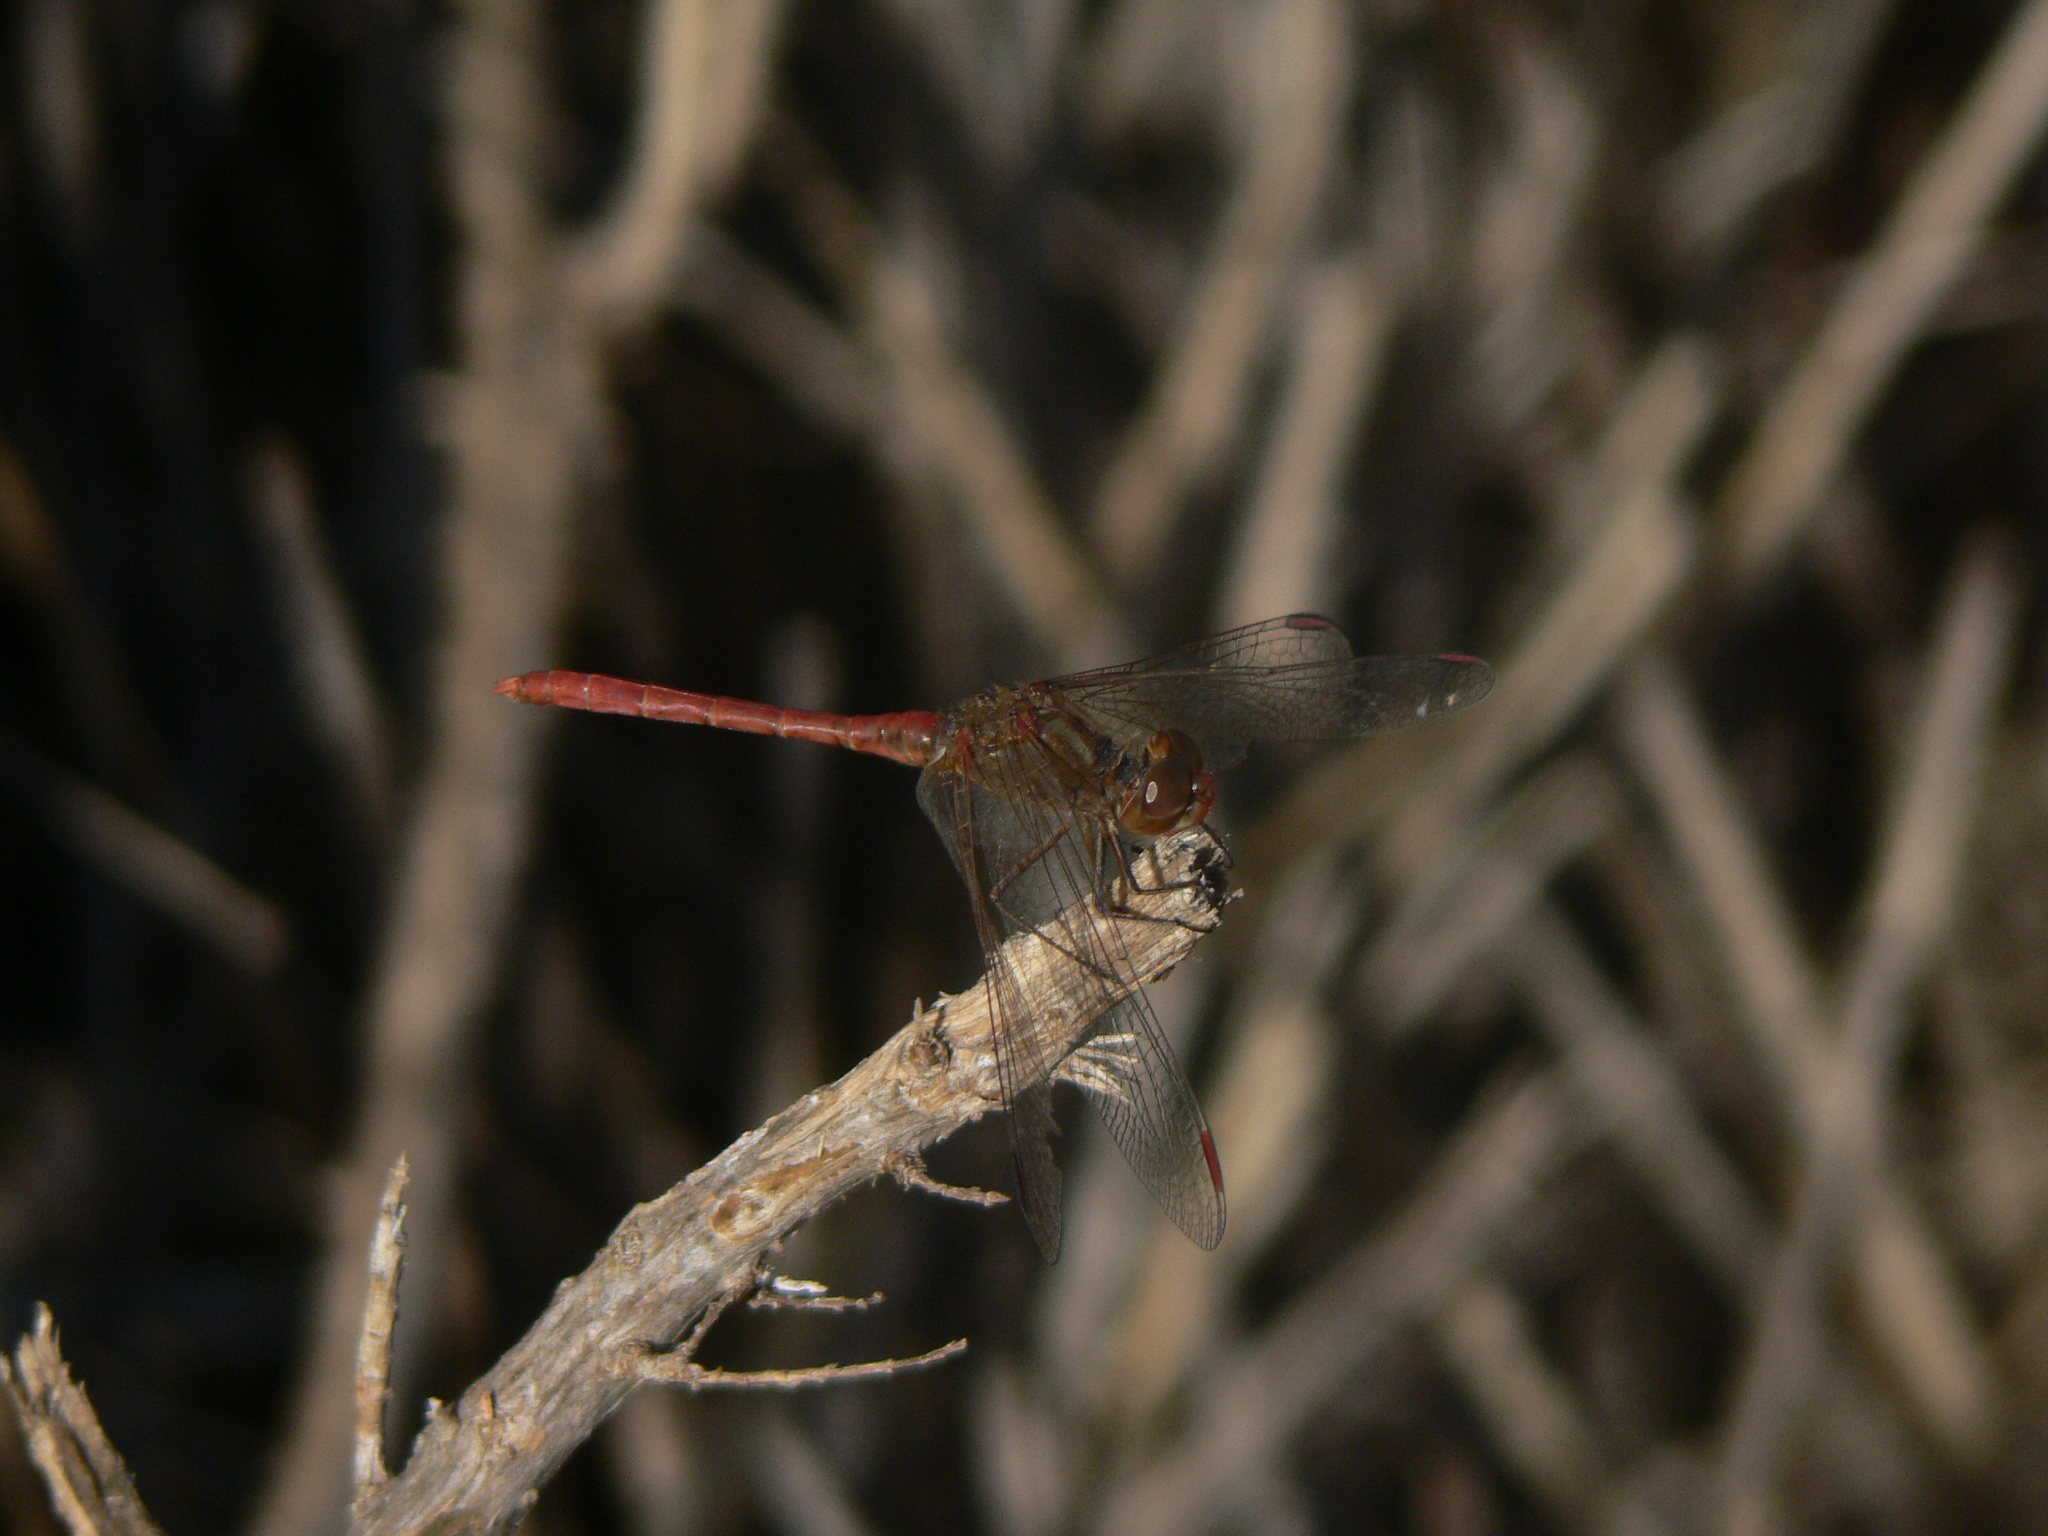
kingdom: Animalia
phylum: Arthropoda
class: Insecta
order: Odonata
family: Libellulidae
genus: Sympetrum
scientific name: Sympetrum meridionale
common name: Southern darter
